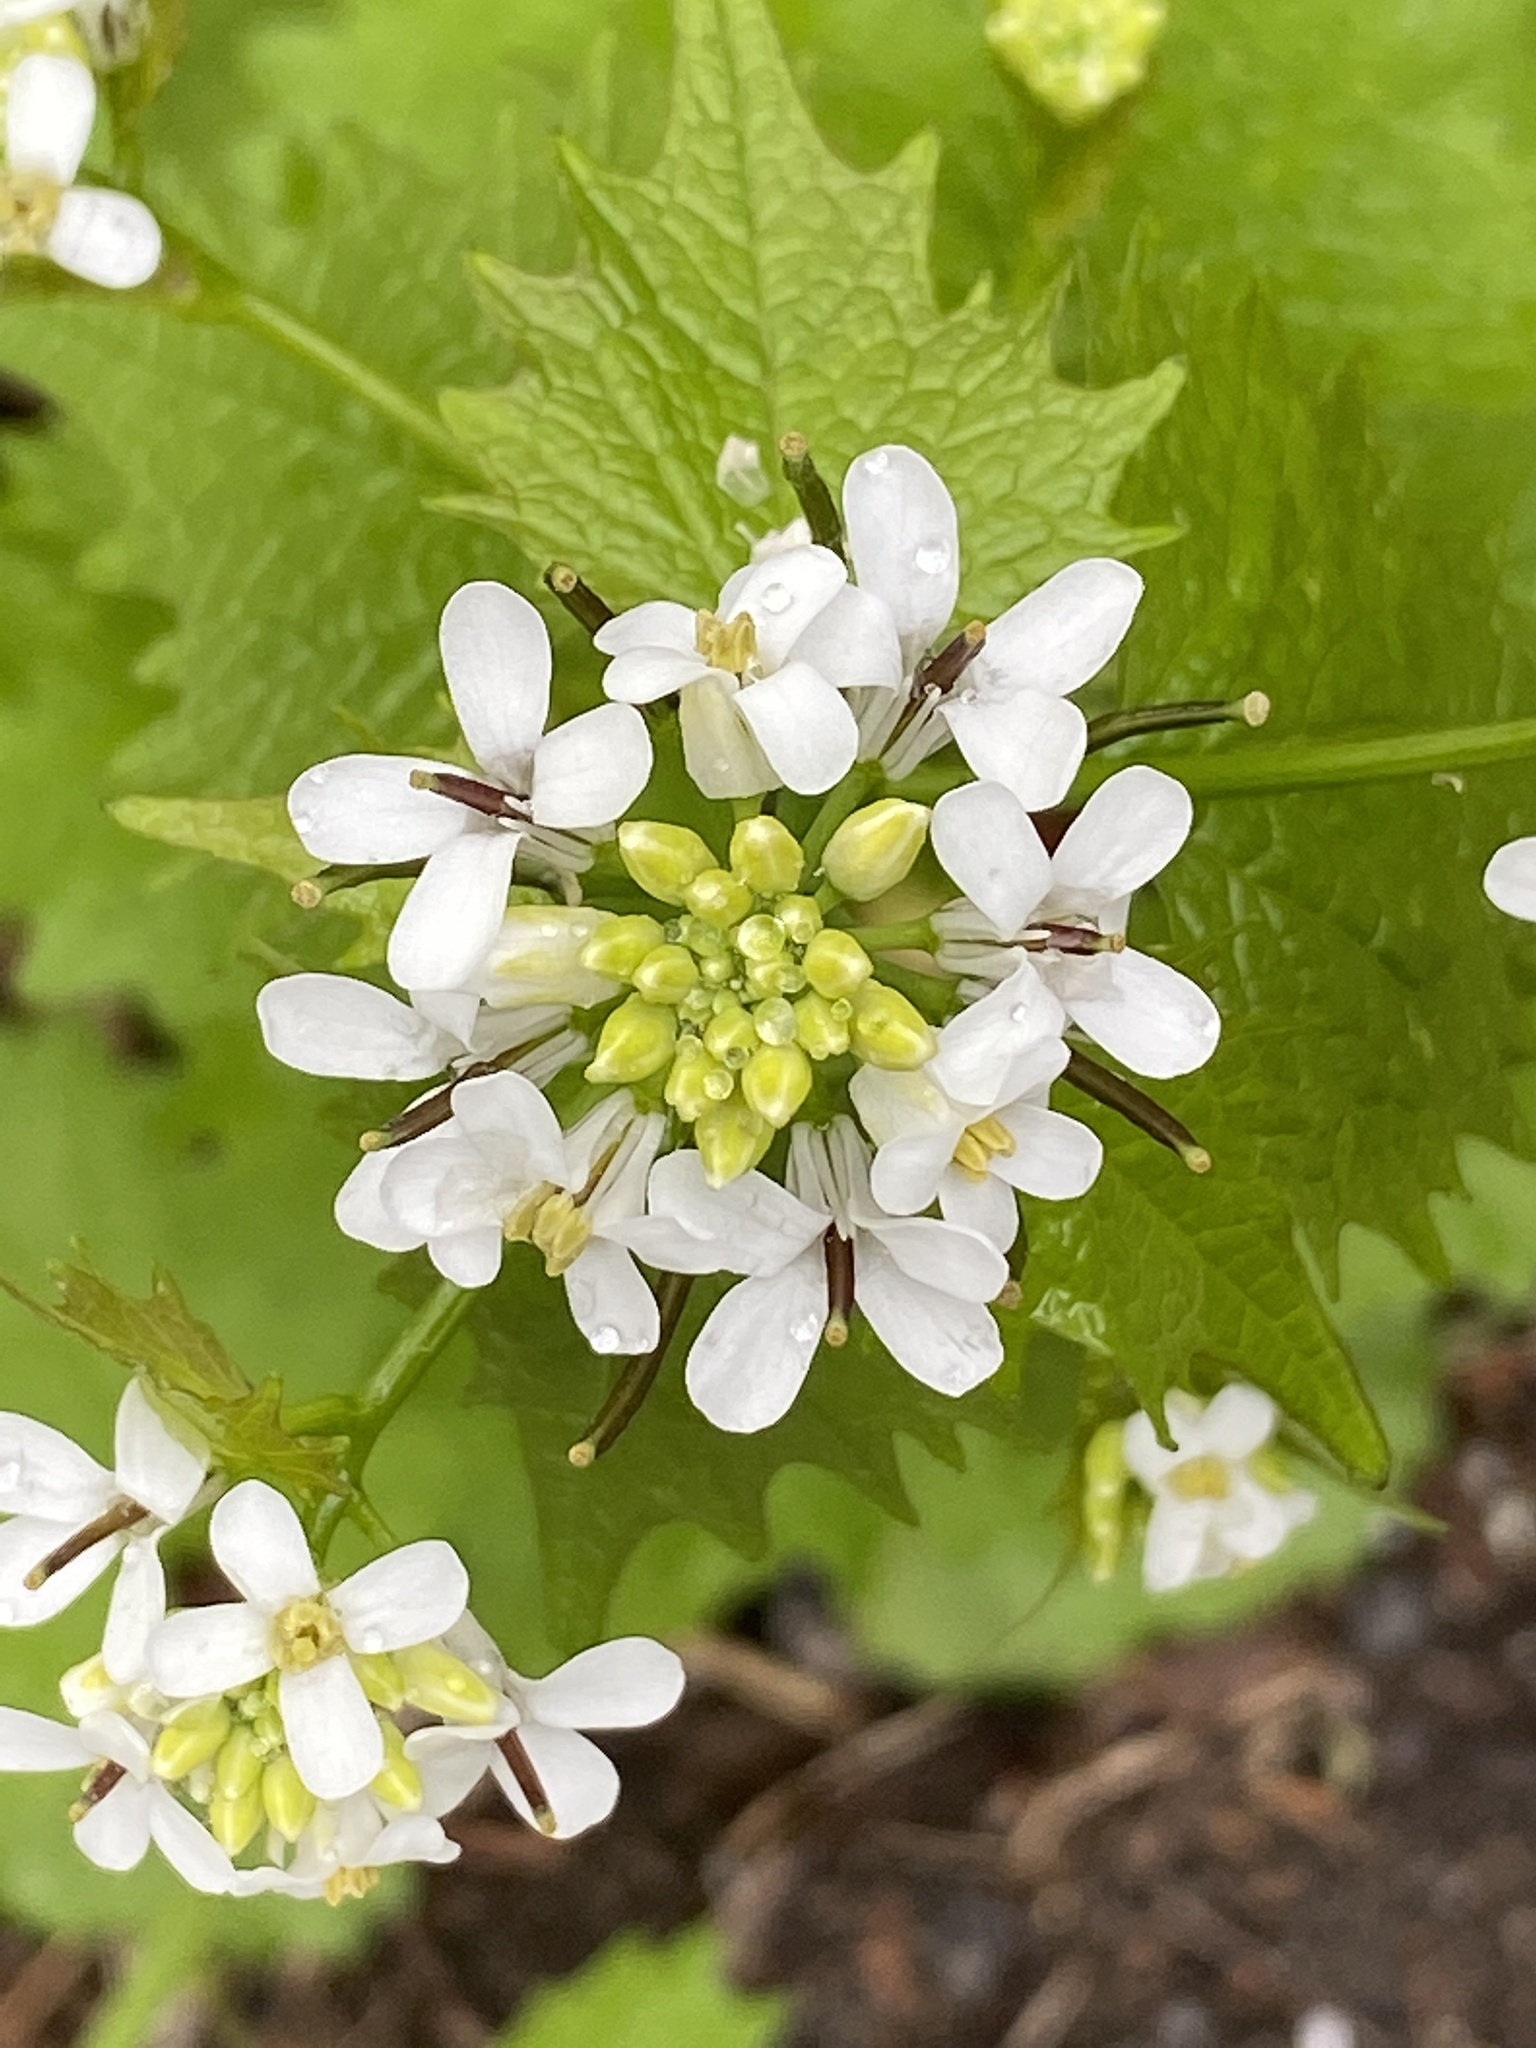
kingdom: Plantae
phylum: Tracheophyta
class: Magnoliopsida
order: Brassicales
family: Brassicaceae
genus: Alliaria
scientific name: Alliaria petiolata
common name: Garlic mustard
